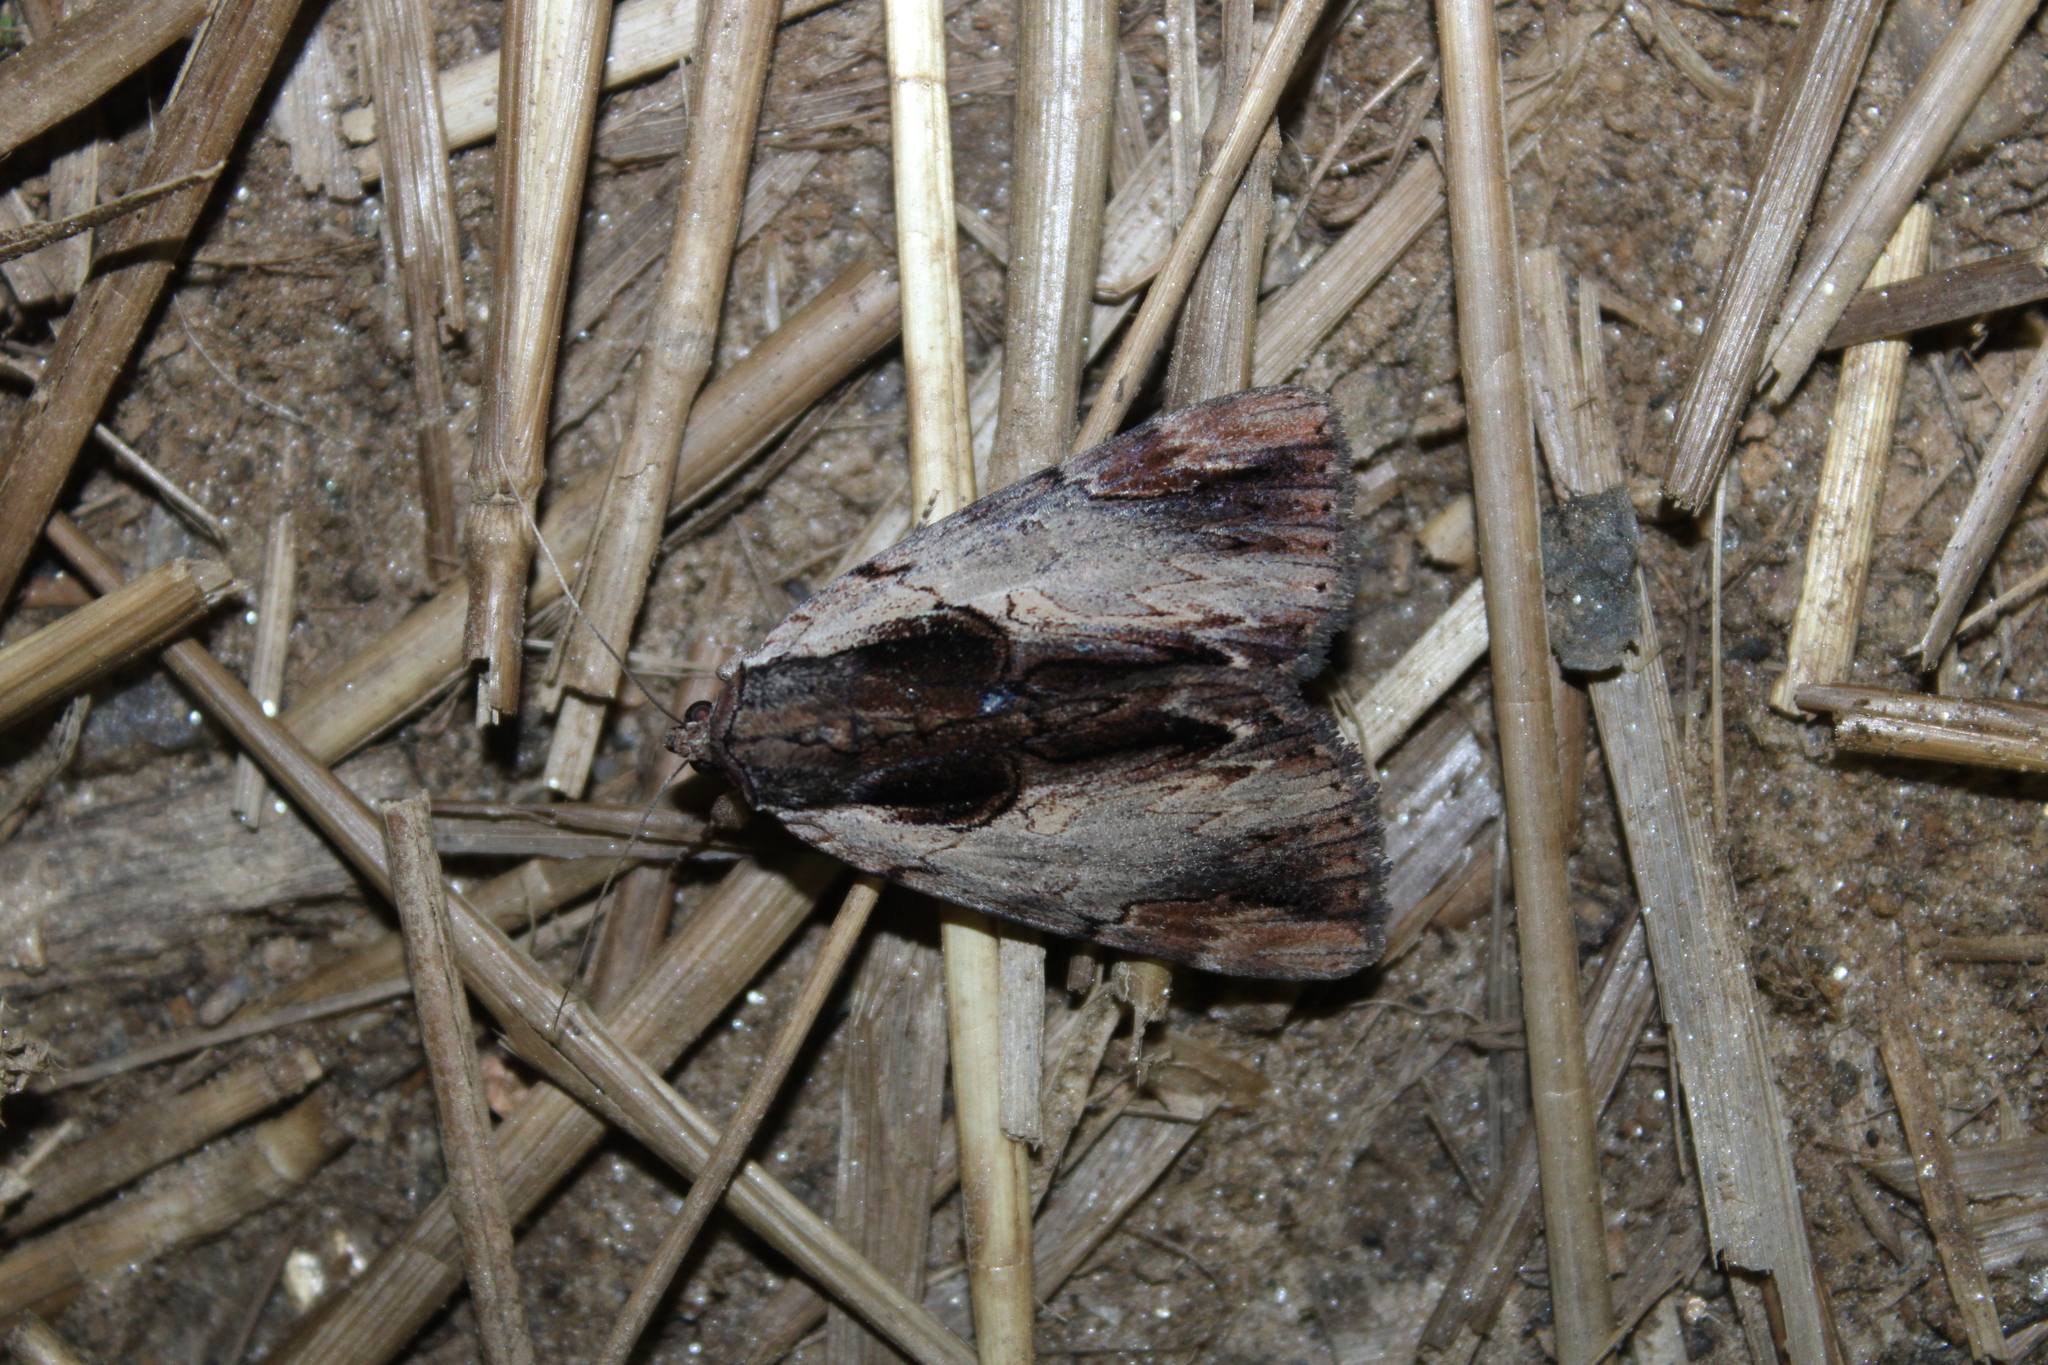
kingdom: Animalia
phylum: Arthropoda
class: Insecta
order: Lepidoptera
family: Erebidae
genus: Catocala
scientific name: Catocala ultronia
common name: Ultronia underwing
